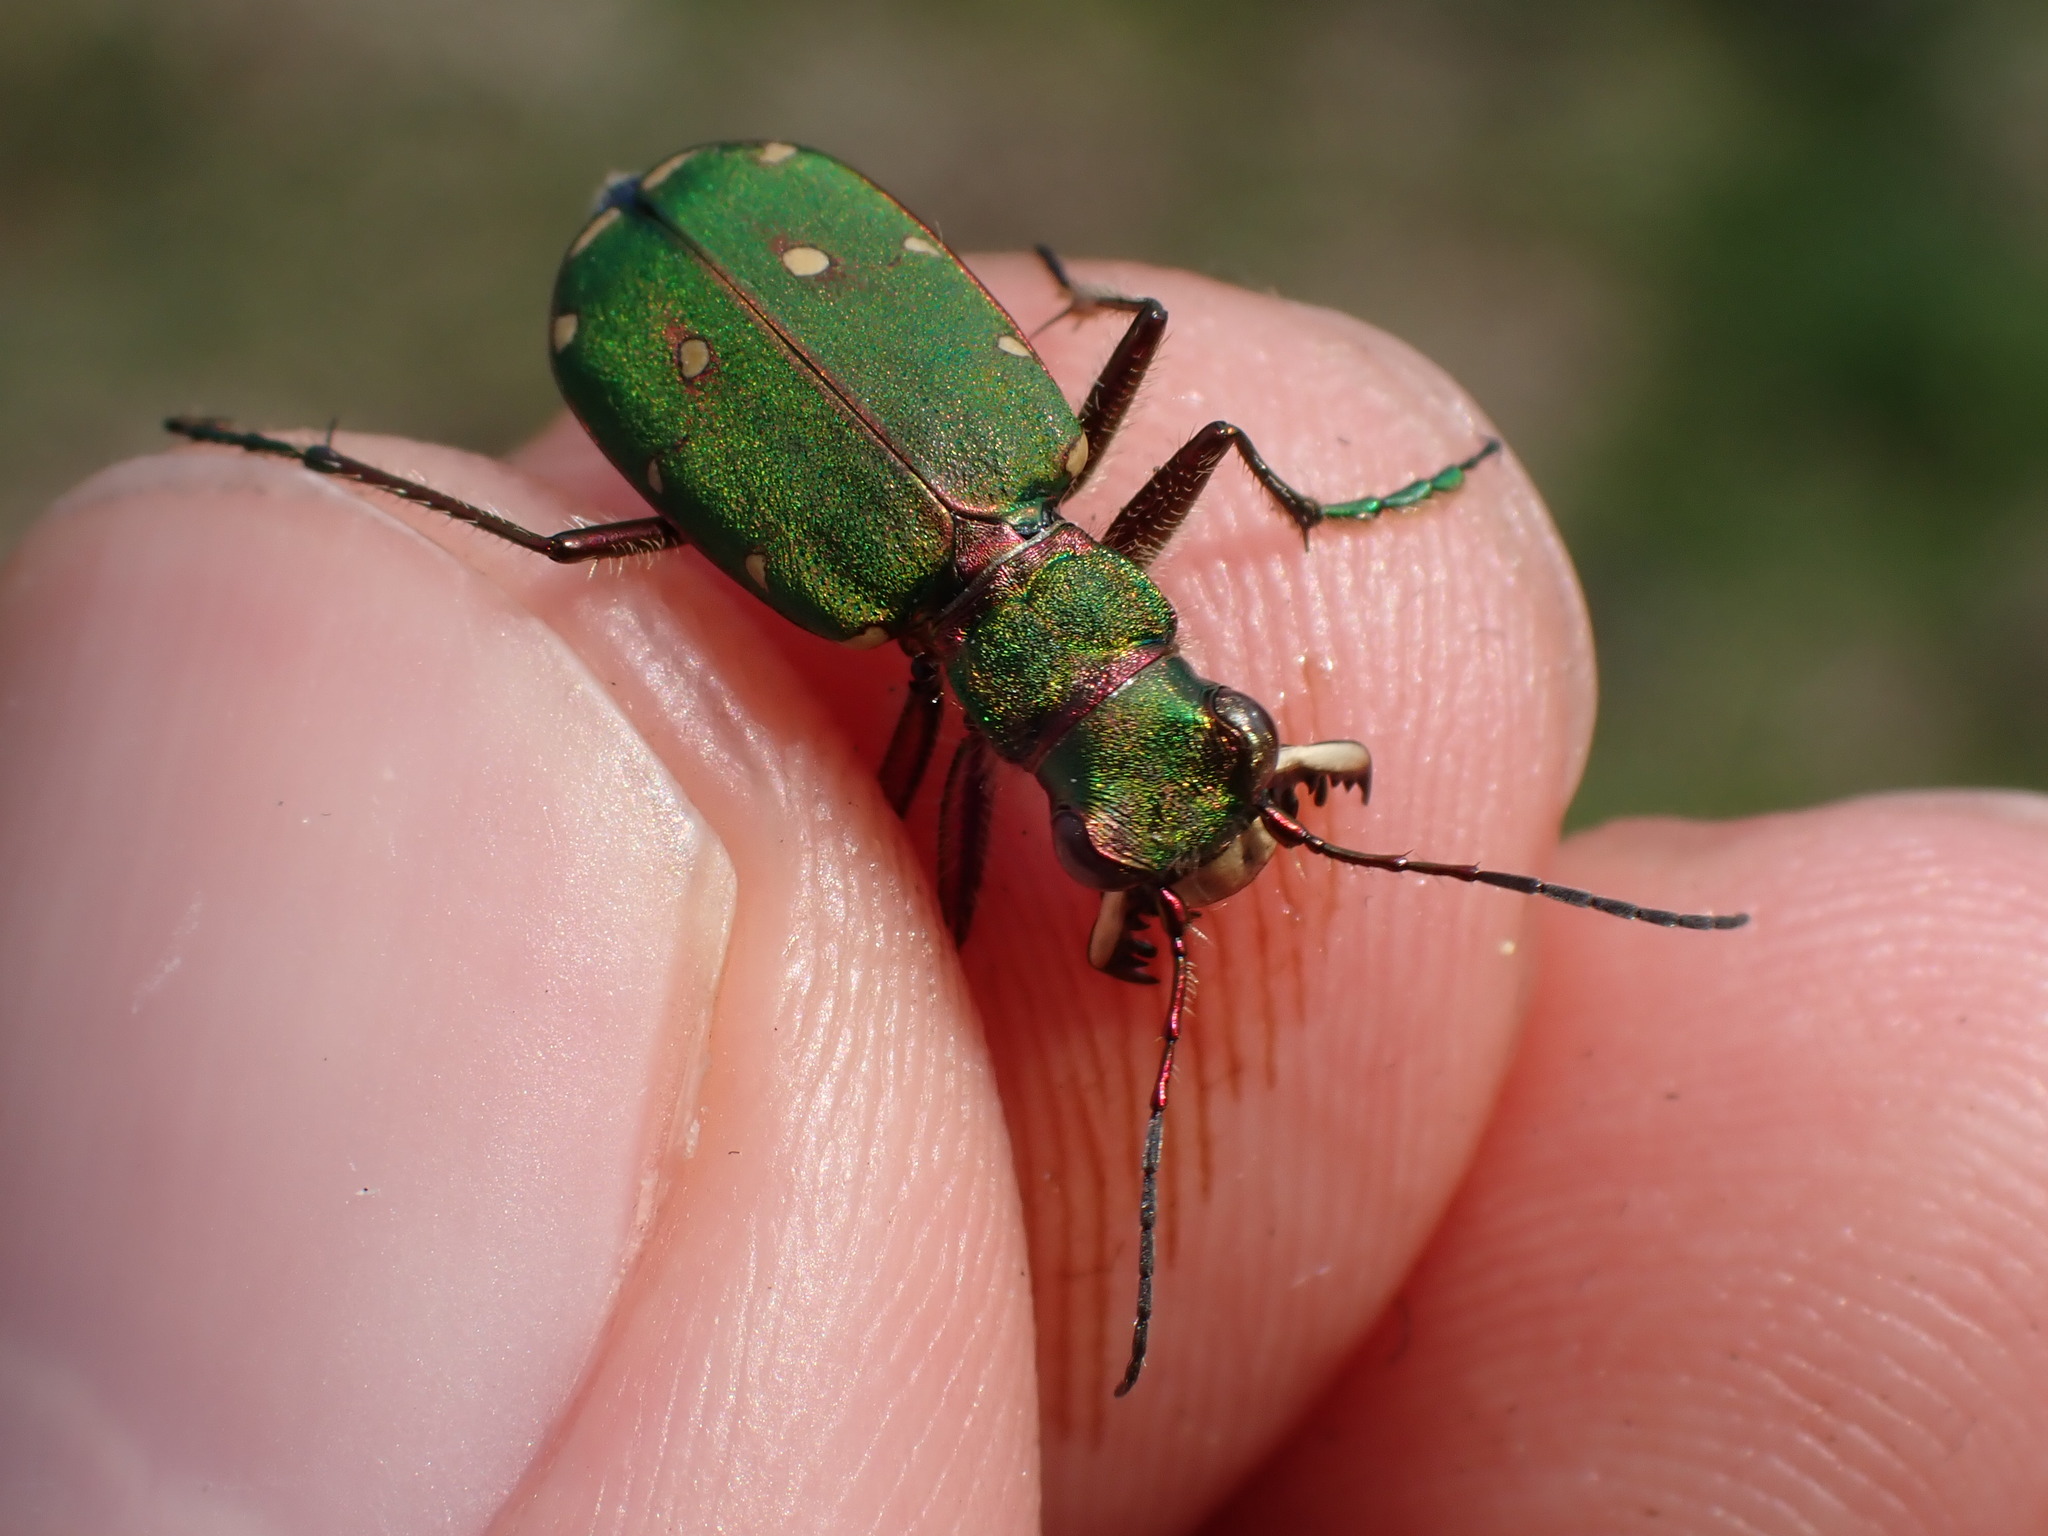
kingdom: Animalia
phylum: Arthropoda
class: Insecta
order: Coleoptera
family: Carabidae
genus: Cicindela
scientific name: Cicindela campestris
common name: Common tiger beetle
